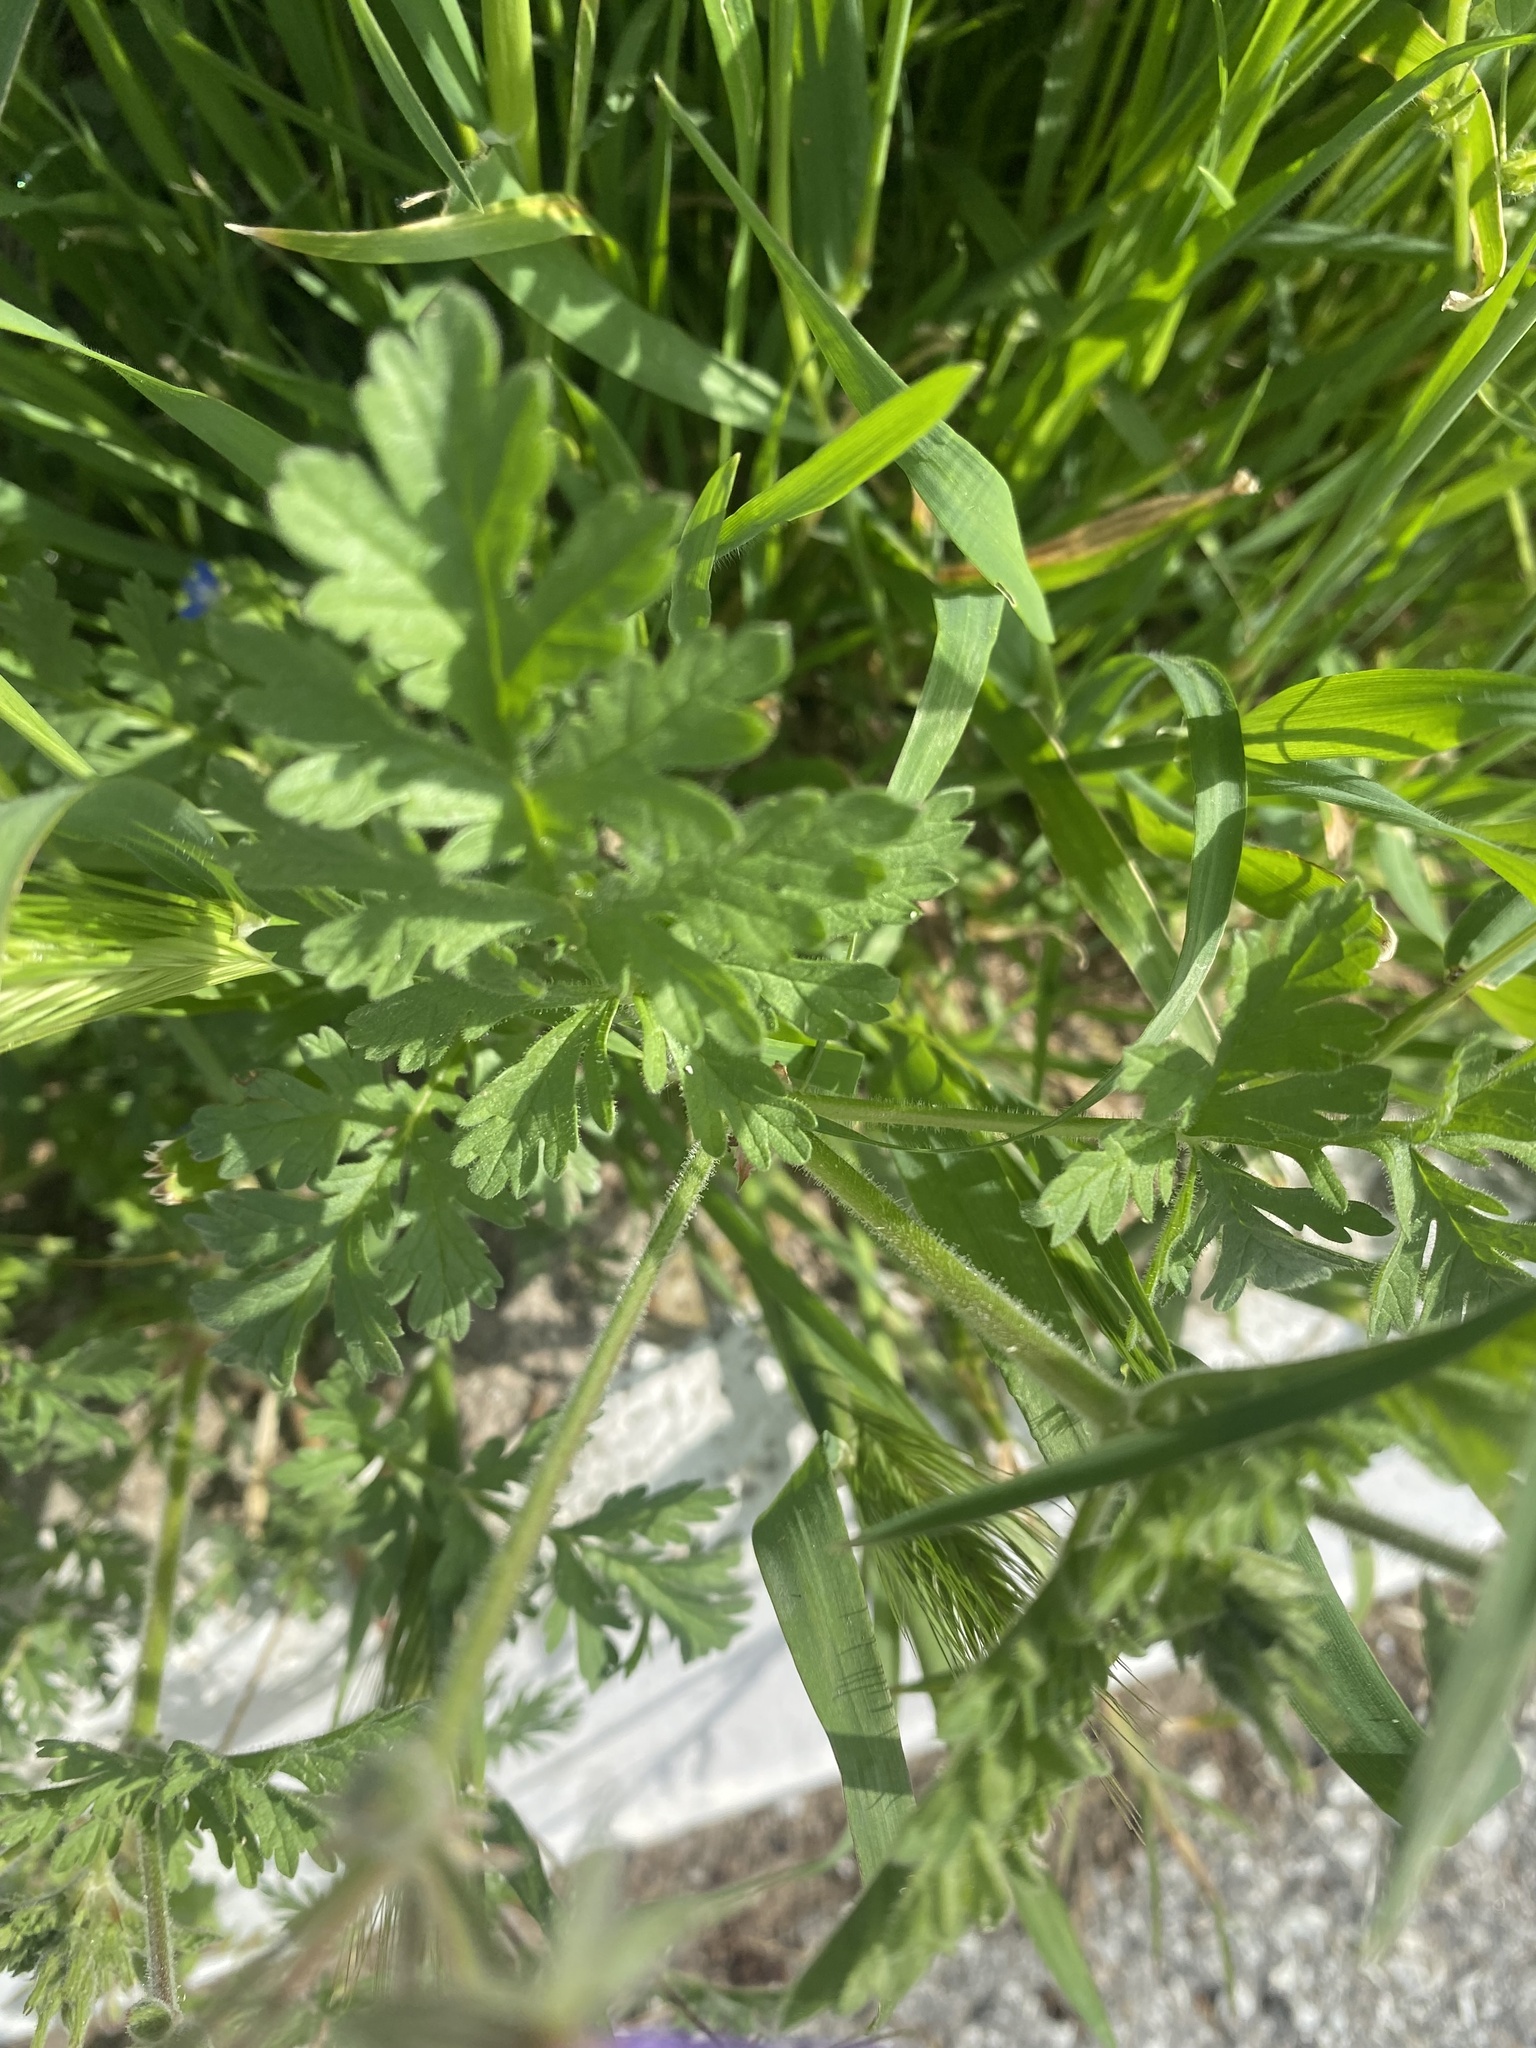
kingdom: Plantae
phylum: Tracheophyta
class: Magnoliopsida
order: Geraniales
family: Geraniaceae
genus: Erodium
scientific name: Erodium ciconium
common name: Common stork's bill
